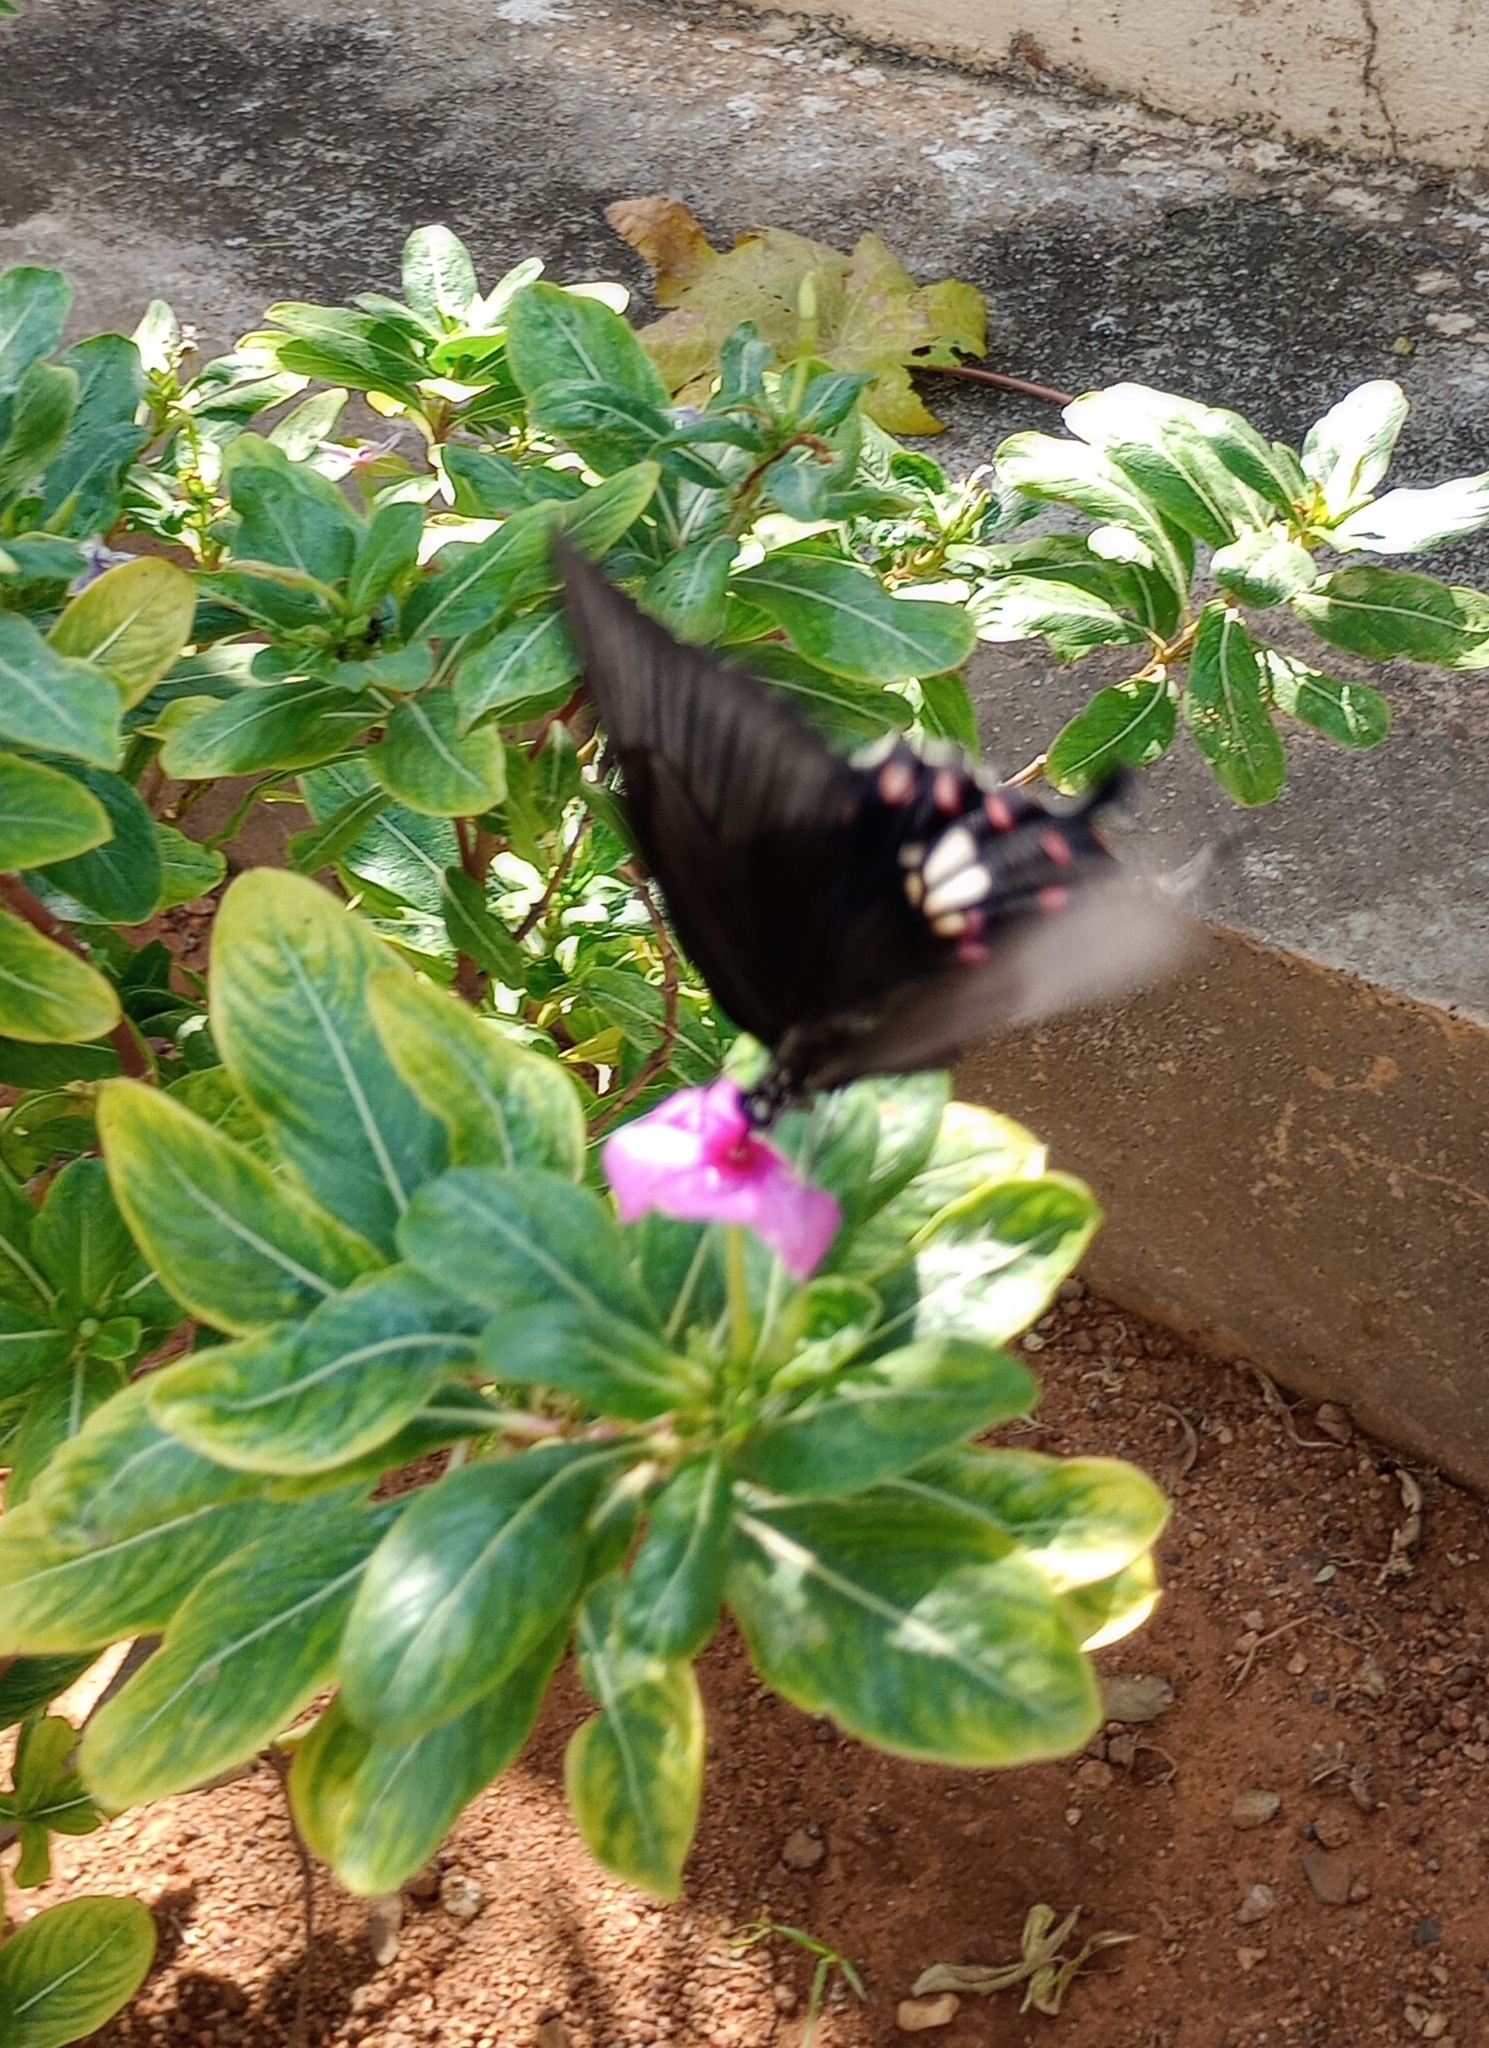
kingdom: Animalia
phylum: Arthropoda
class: Insecta
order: Lepidoptera
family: Papilionidae
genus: Papilio
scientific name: Papilio polytes
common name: Common mormon
